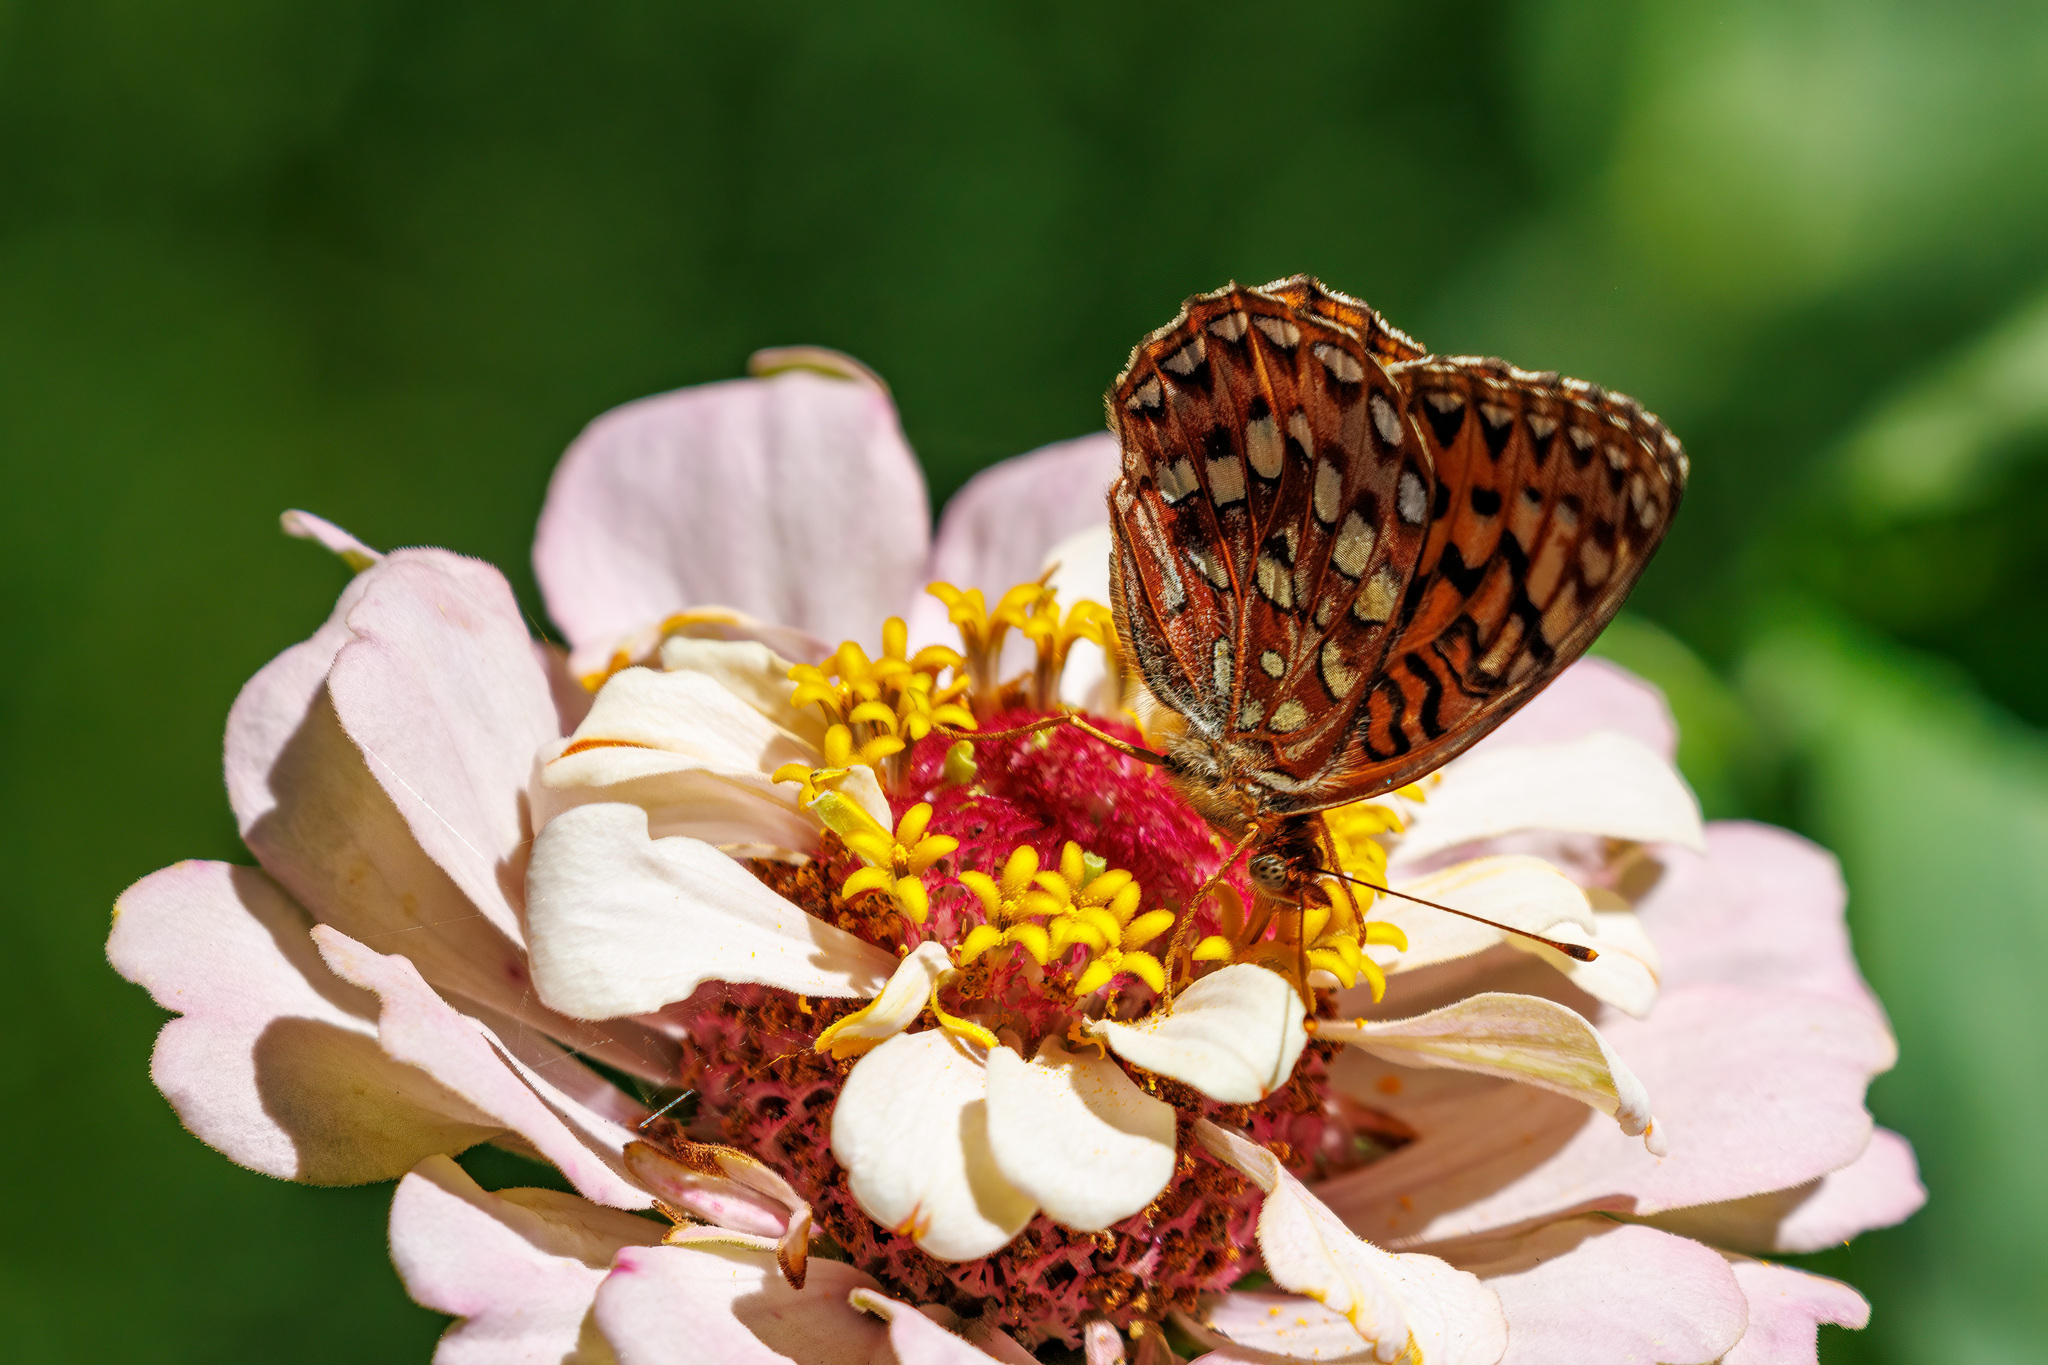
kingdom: Animalia
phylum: Arthropoda
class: Insecta
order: Lepidoptera
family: Nymphalidae
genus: Speyeria
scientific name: Speyeria hydaspe
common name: Hydaspe fritillary
